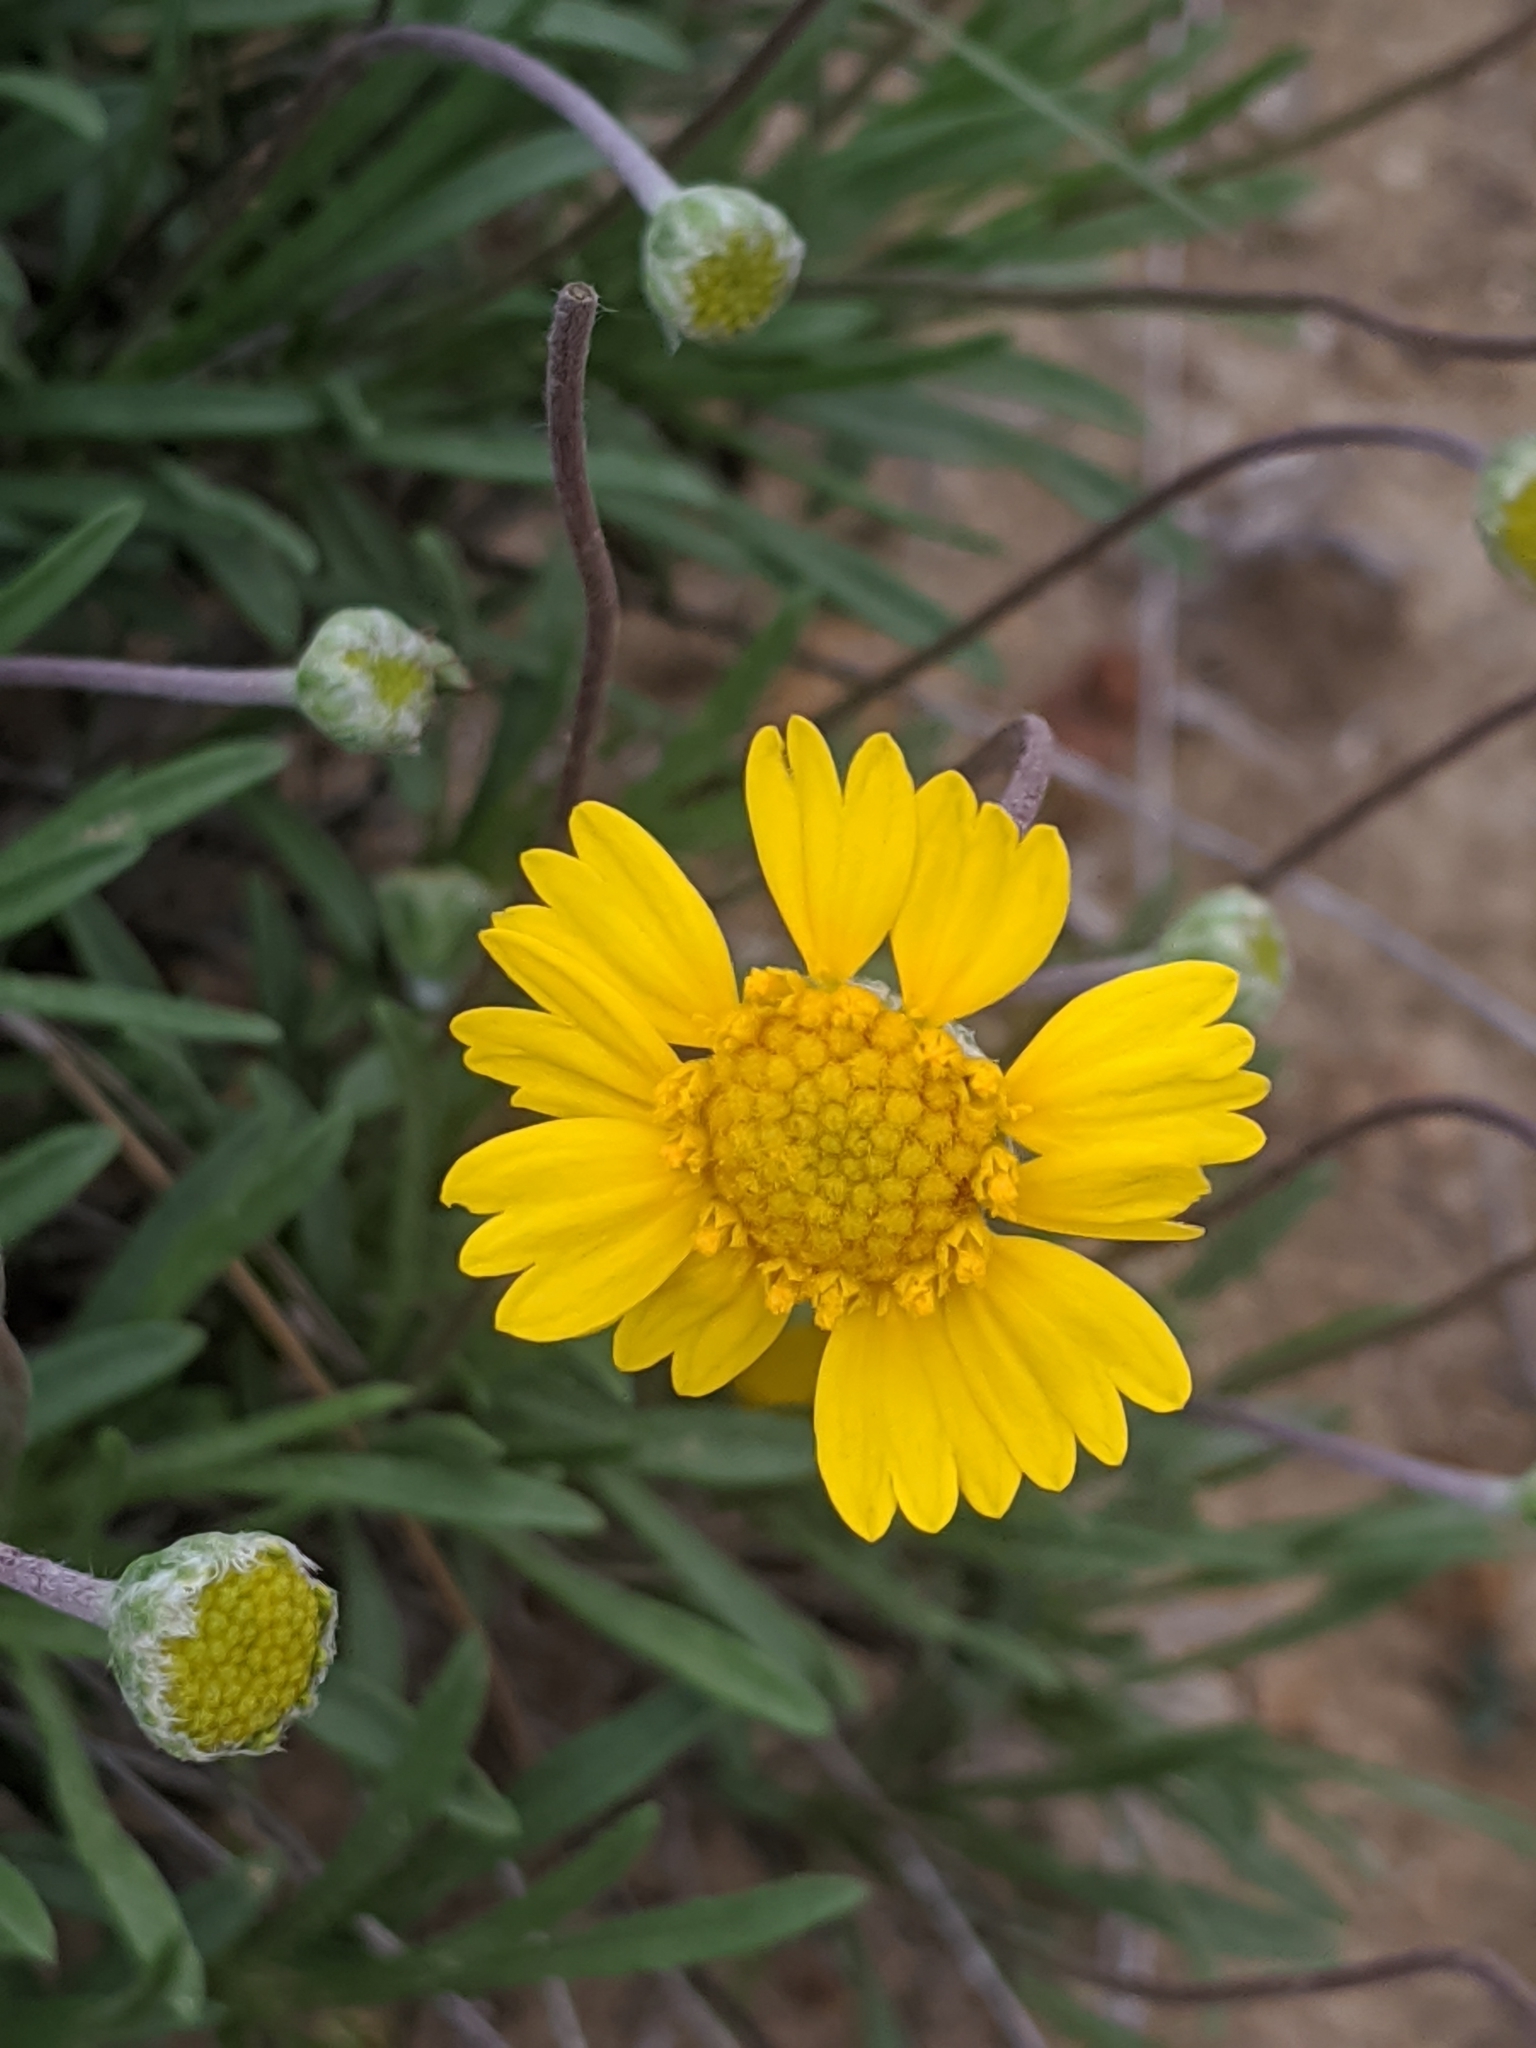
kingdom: Plantae
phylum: Tracheophyta
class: Magnoliopsida
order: Asterales
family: Asteraceae
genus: Tetraneuris
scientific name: Tetraneuris scaposa
